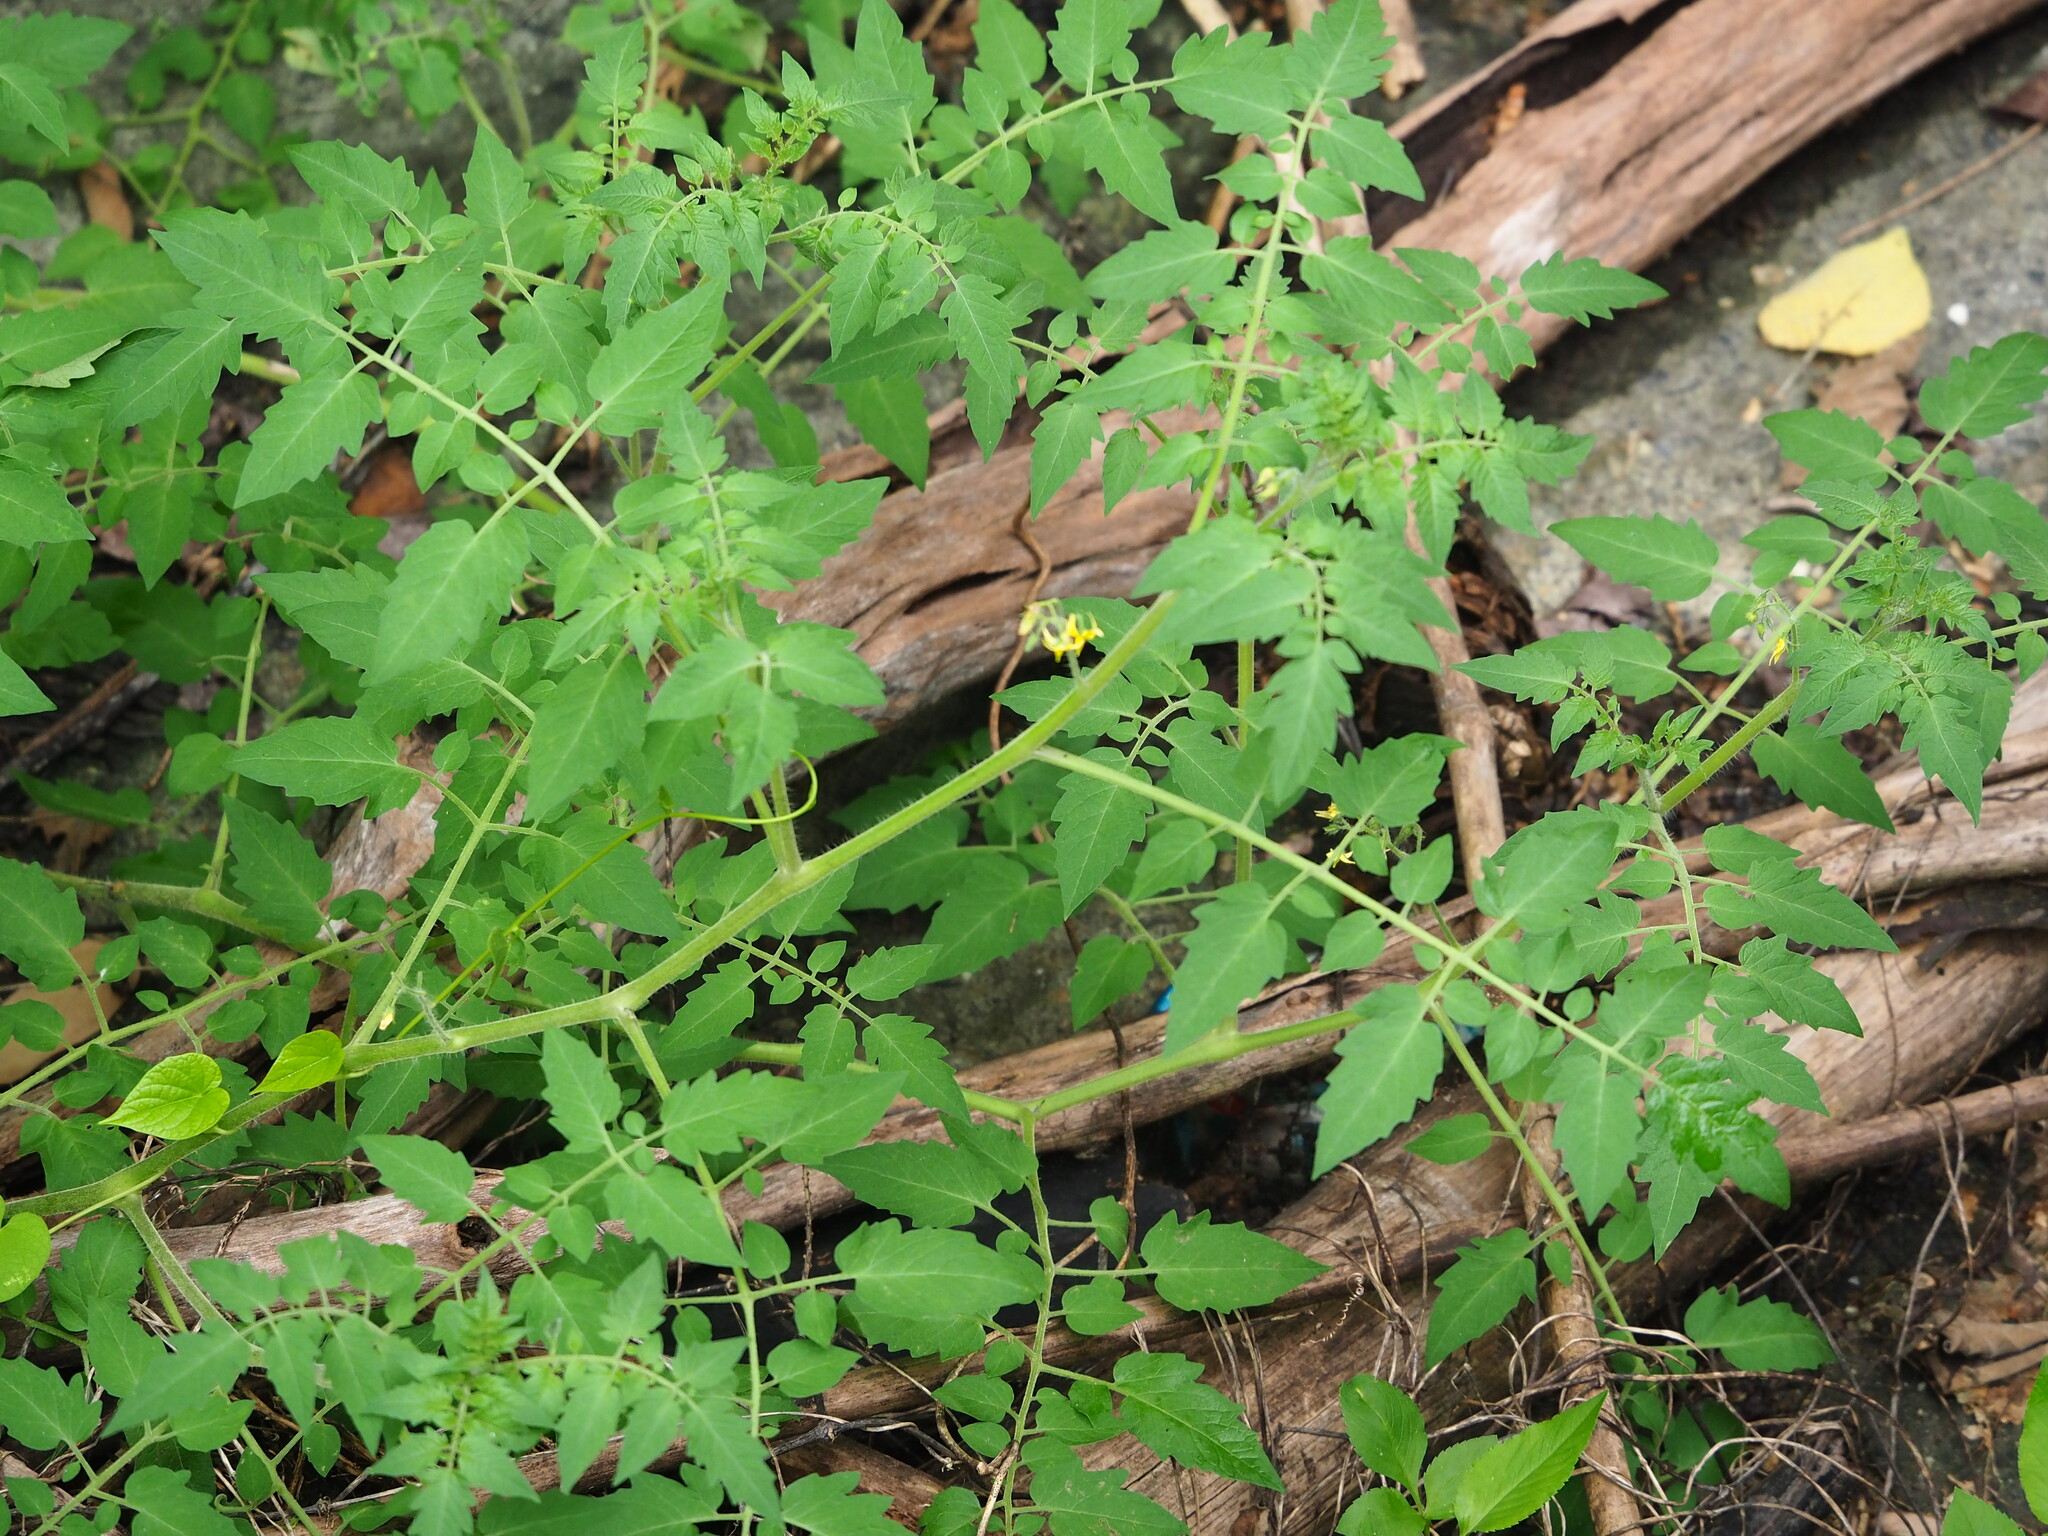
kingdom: Plantae
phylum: Tracheophyta
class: Magnoliopsida
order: Solanales
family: Solanaceae
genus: Solanum
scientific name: Solanum lycopersicum
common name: Garden tomato
